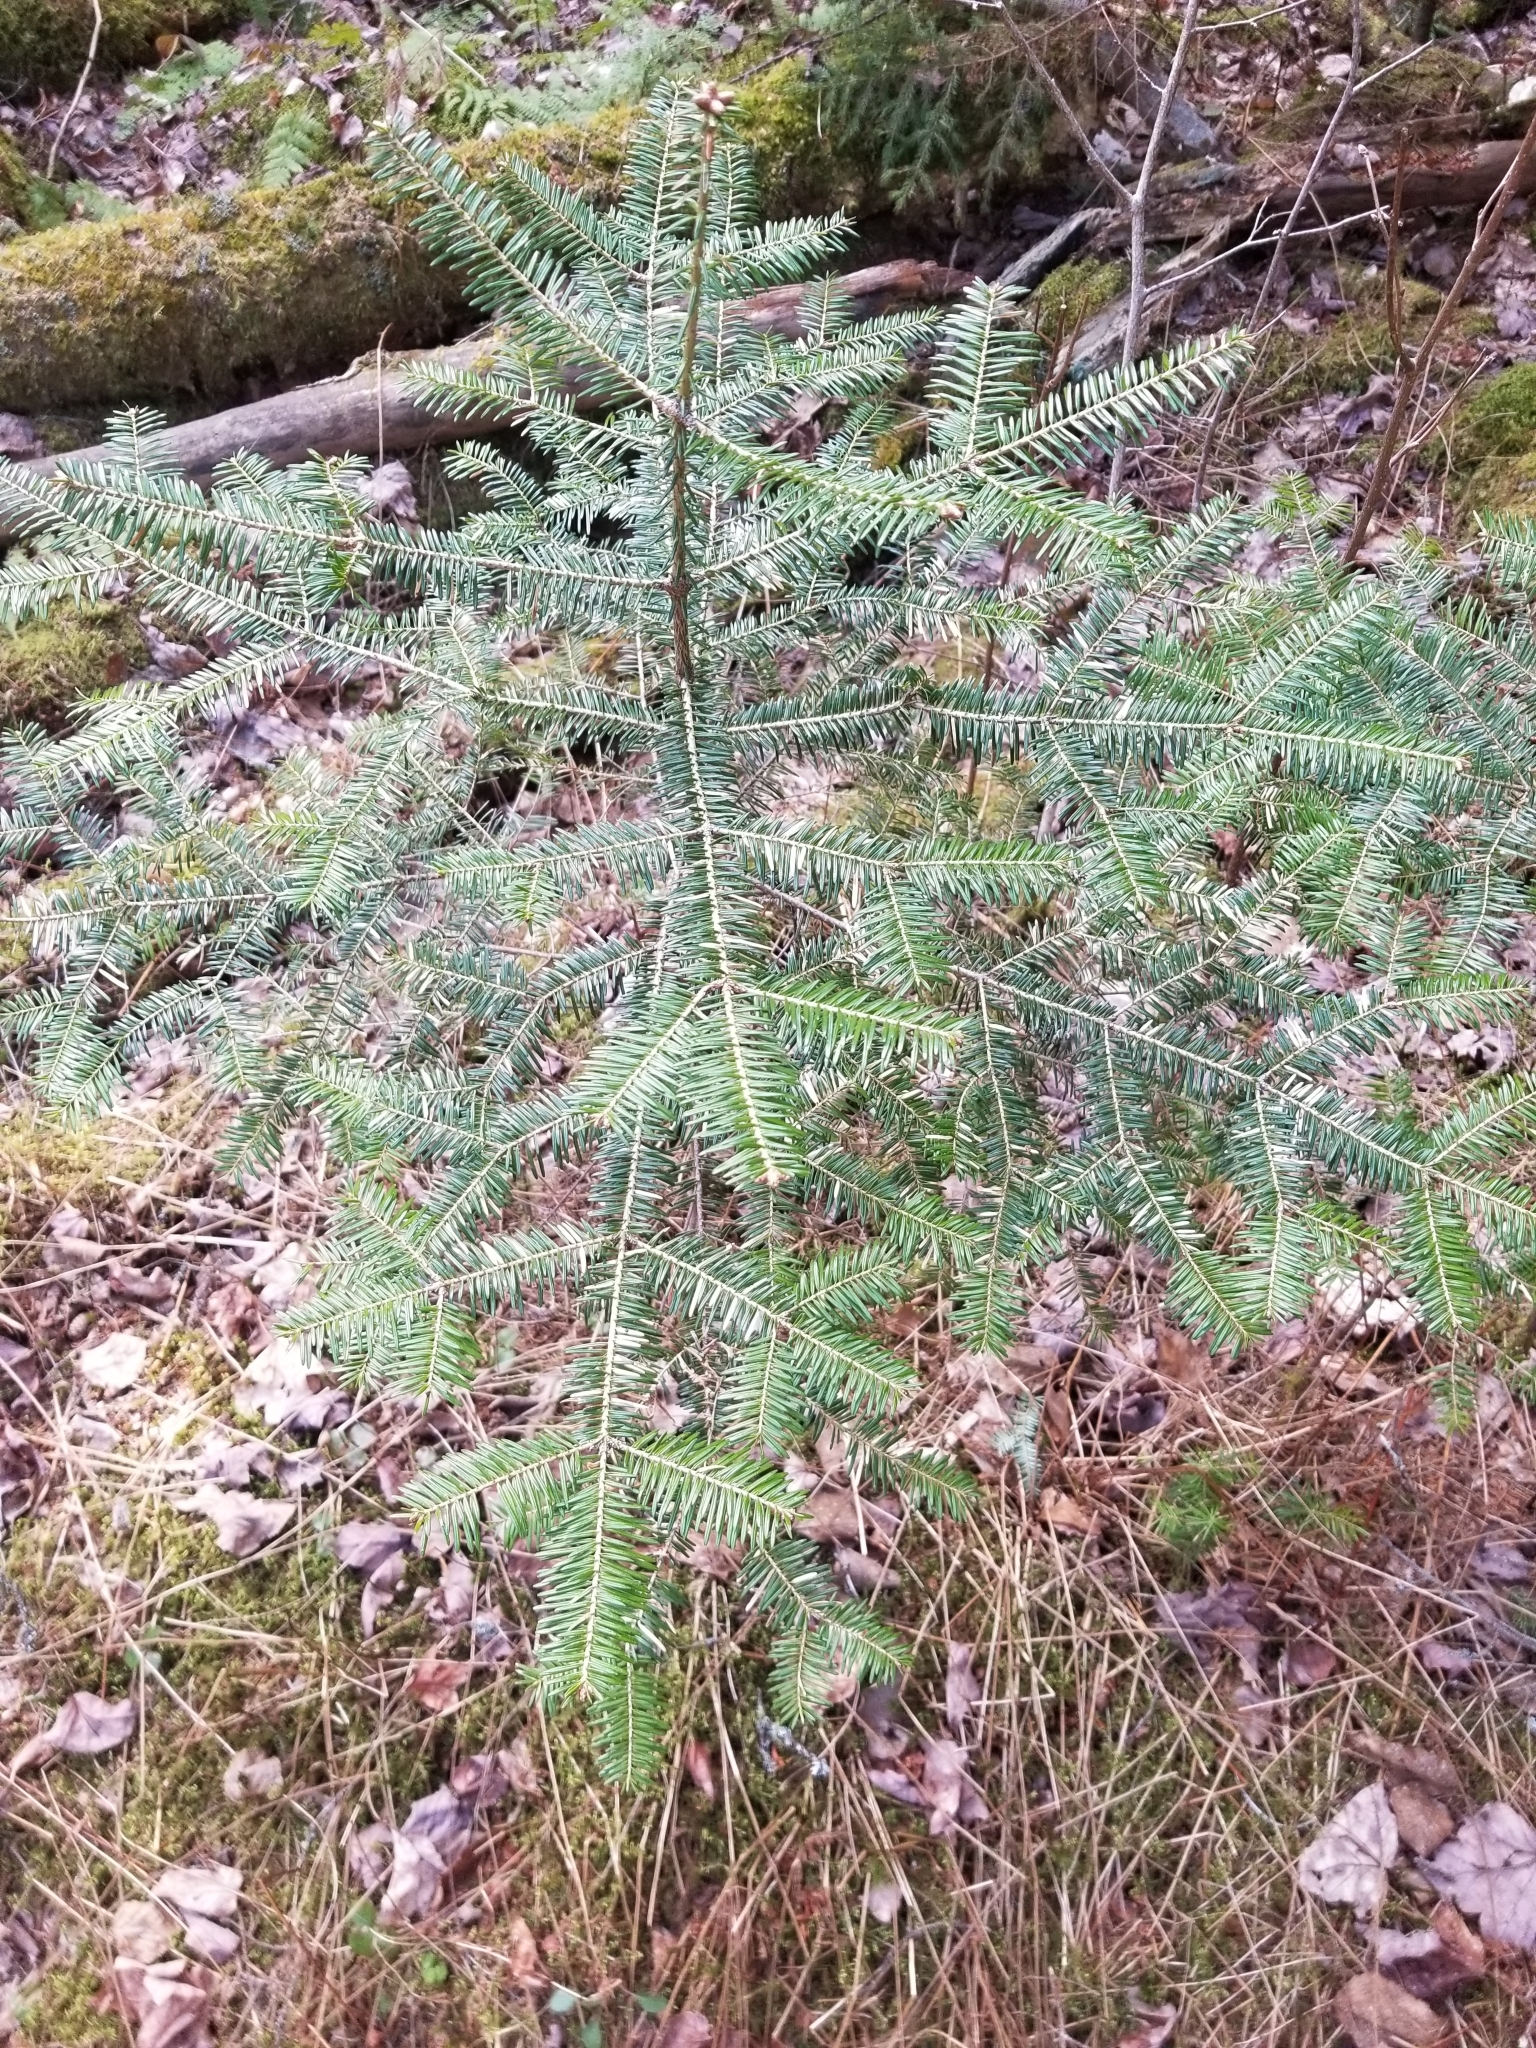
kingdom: Plantae
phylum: Tracheophyta
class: Pinopsida
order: Pinales
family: Pinaceae
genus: Abies
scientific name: Abies balsamea
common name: Balsam fir
